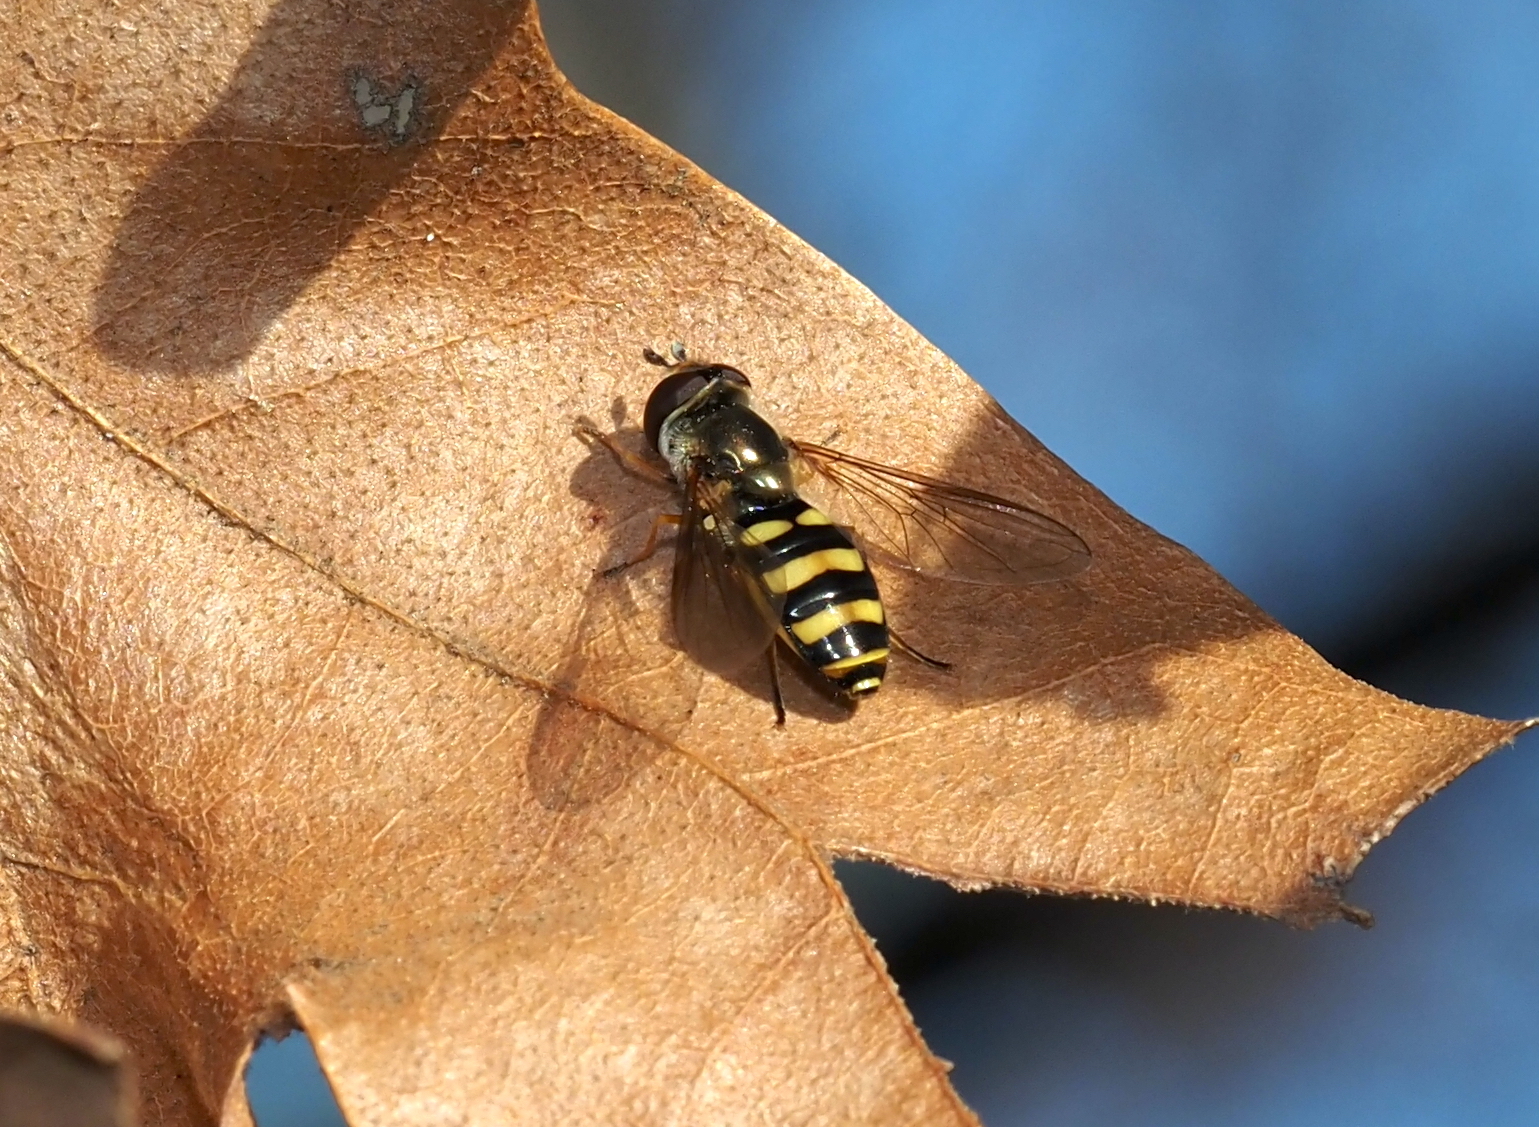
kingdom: Animalia
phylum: Arthropoda
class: Insecta
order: Diptera
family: Syrphidae
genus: Eupeodes
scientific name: Eupeodes
